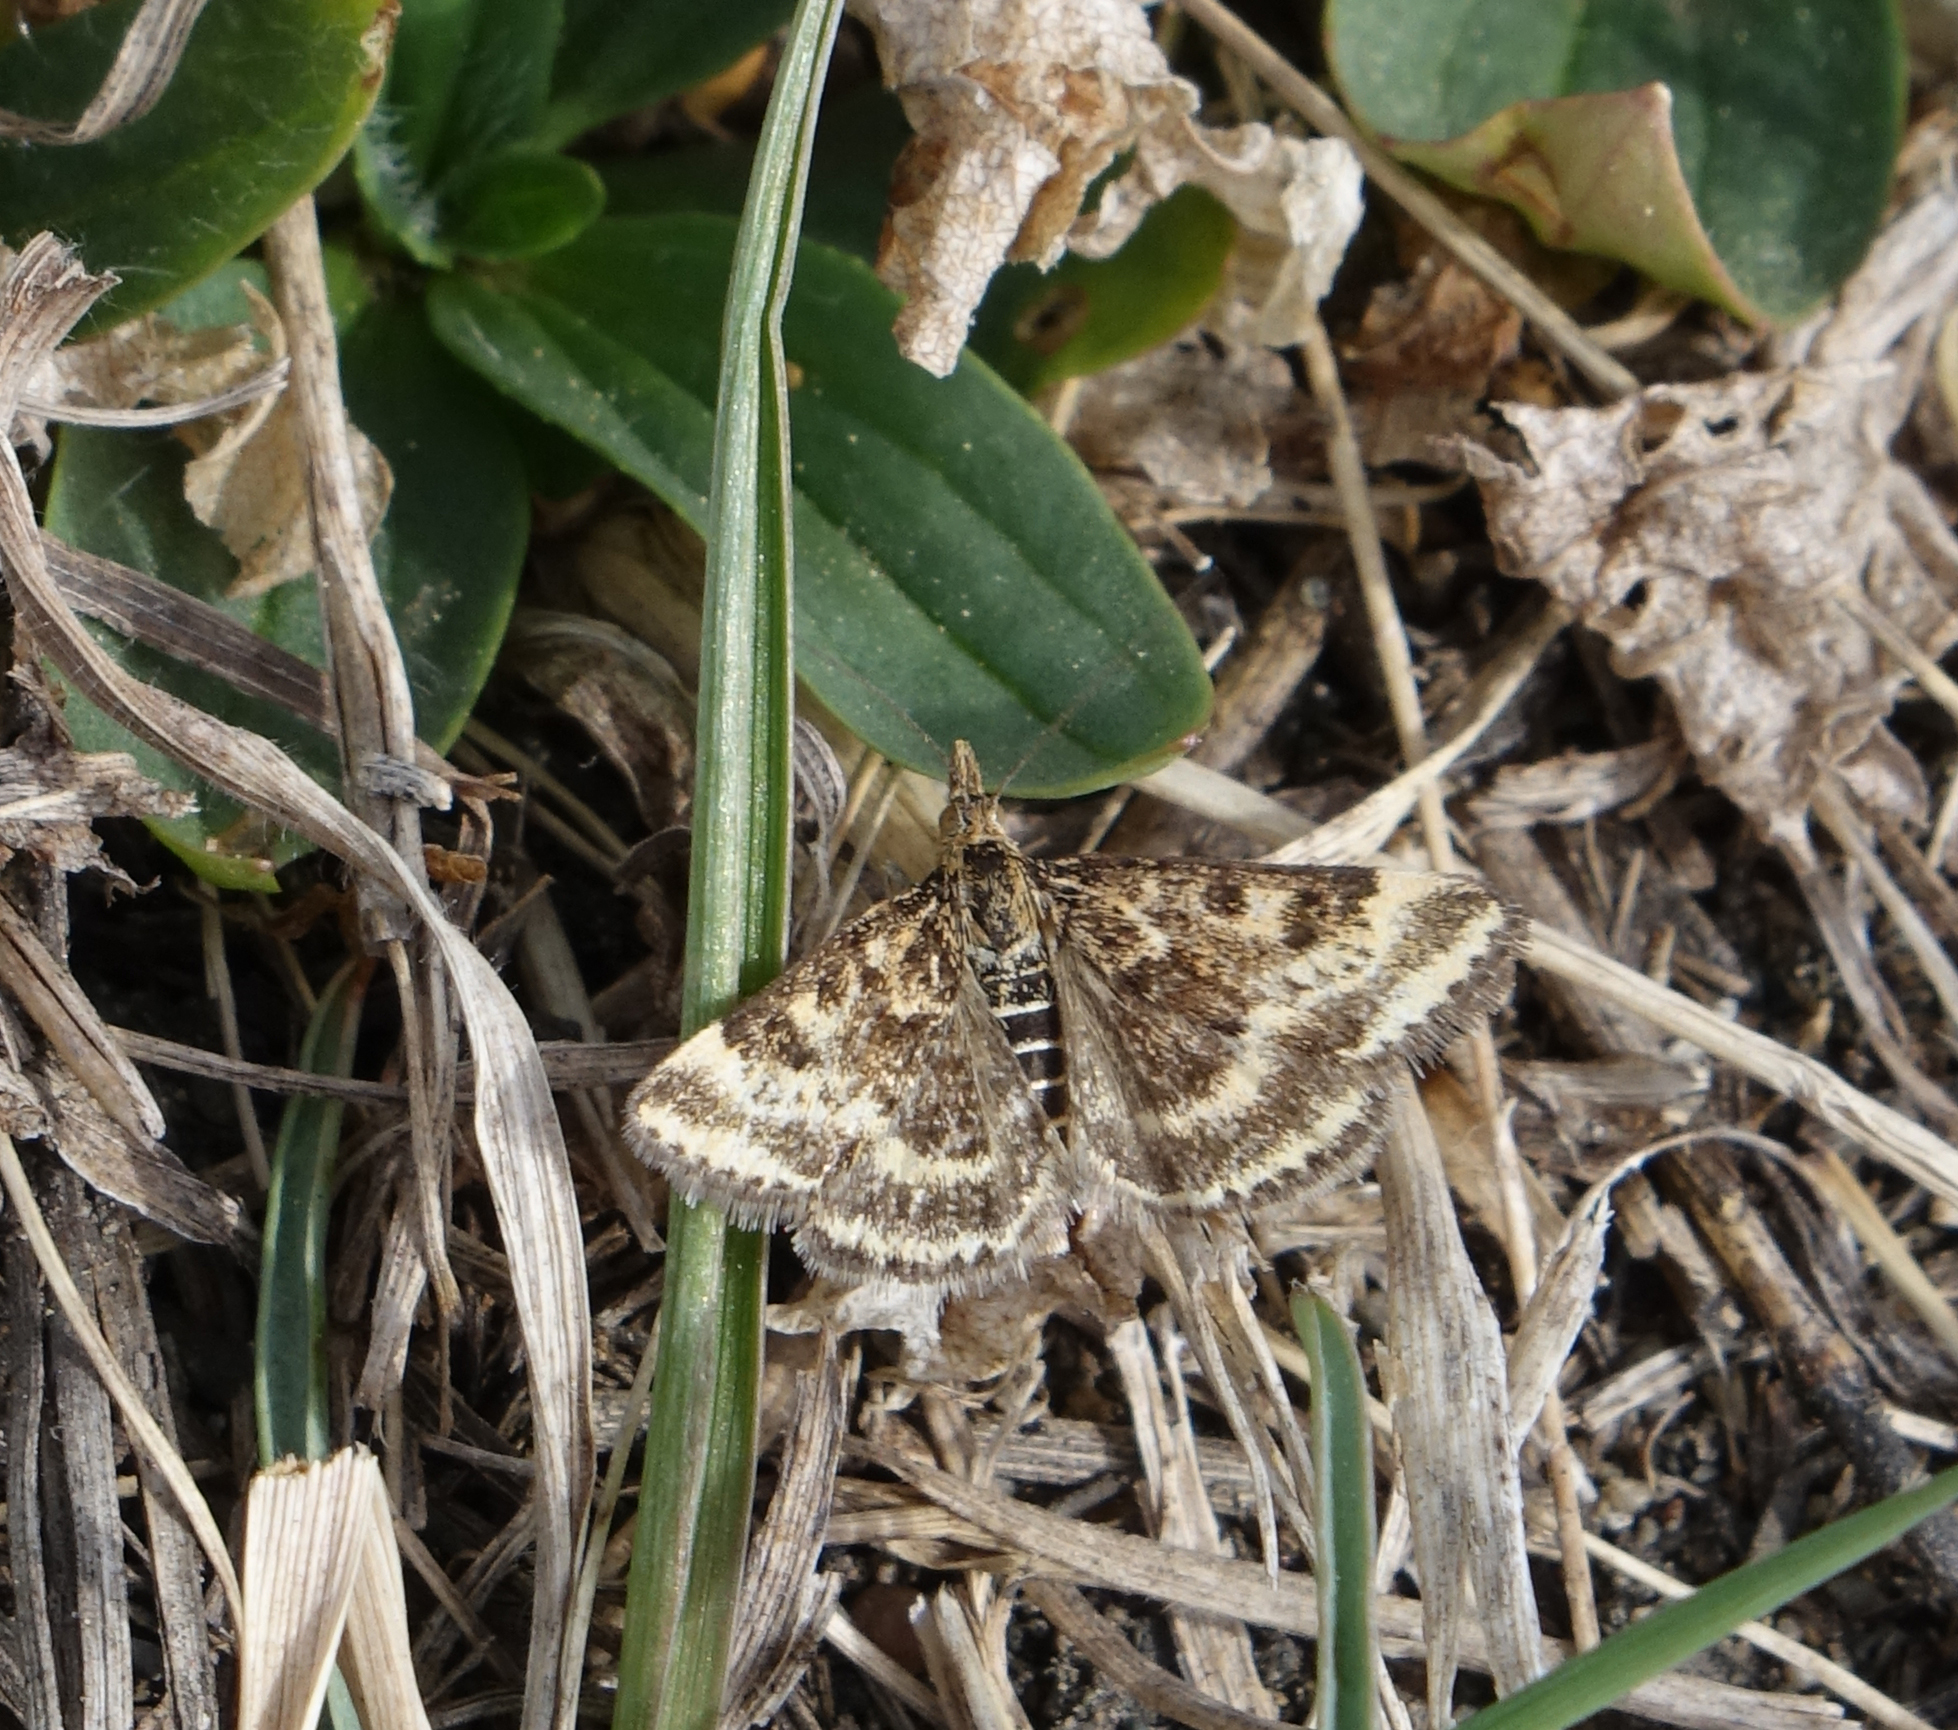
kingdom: Animalia
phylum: Arthropoda
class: Insecta
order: Lepidoptera
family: Crambidae
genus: Pyrausta
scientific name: Pyrausta despicata
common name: Straw-barred pearl
